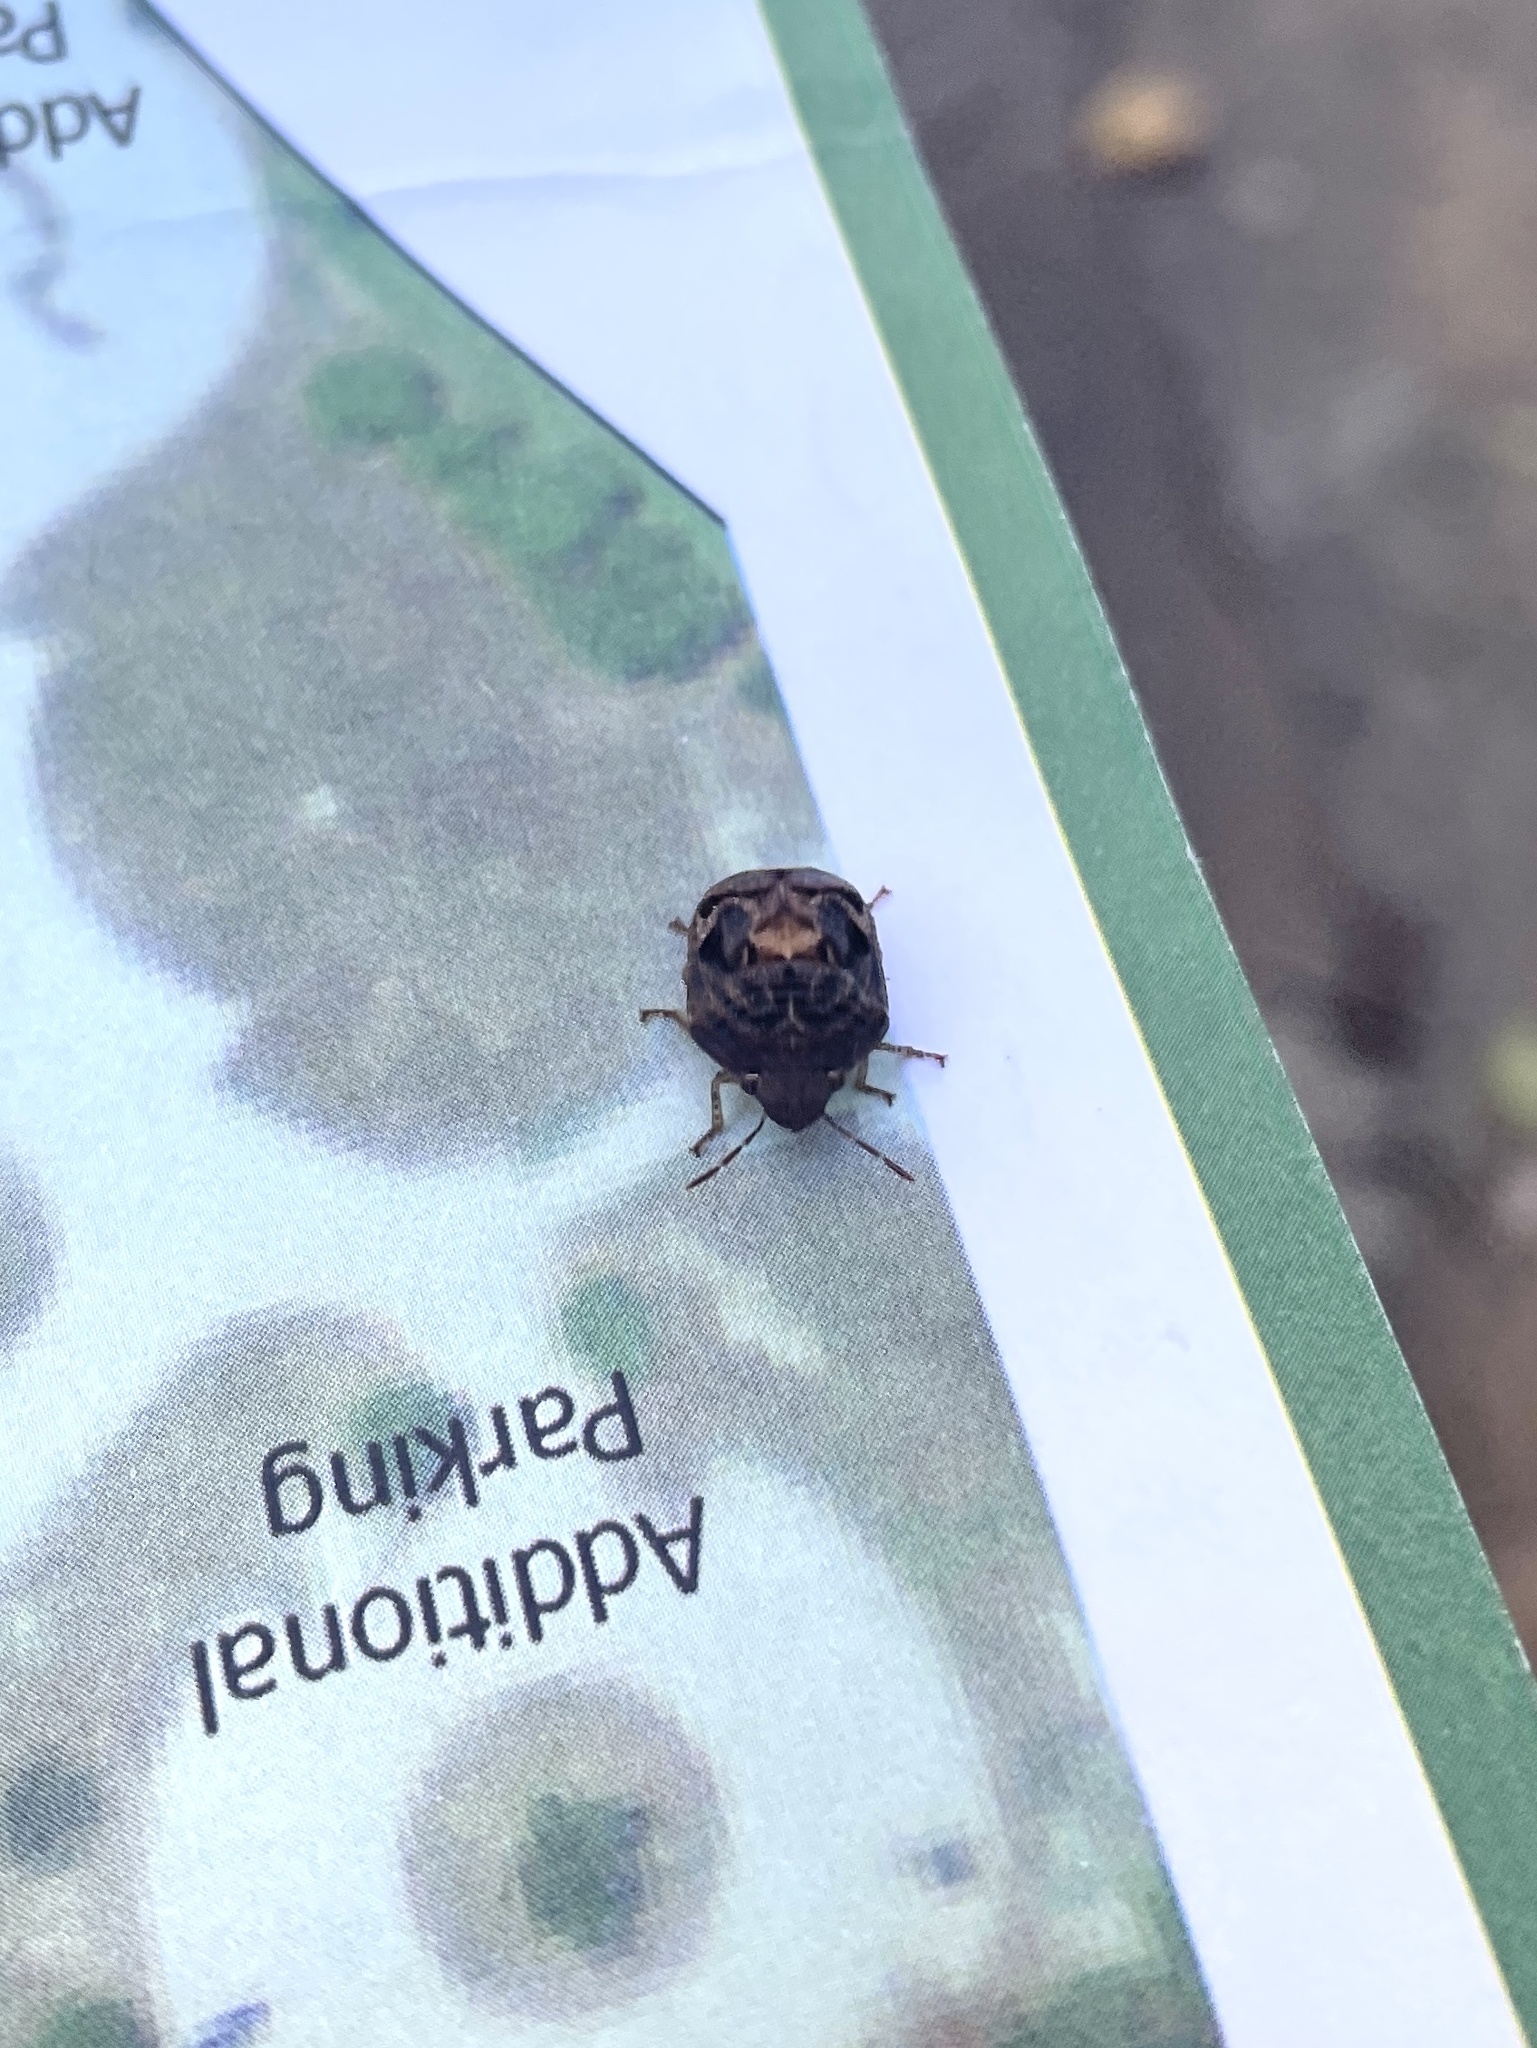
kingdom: Animalia
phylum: Arthropoda
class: Insecta
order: Hemiptera
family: Scutelleridae
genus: Stethaulax
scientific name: Stethaulax marmoratus
